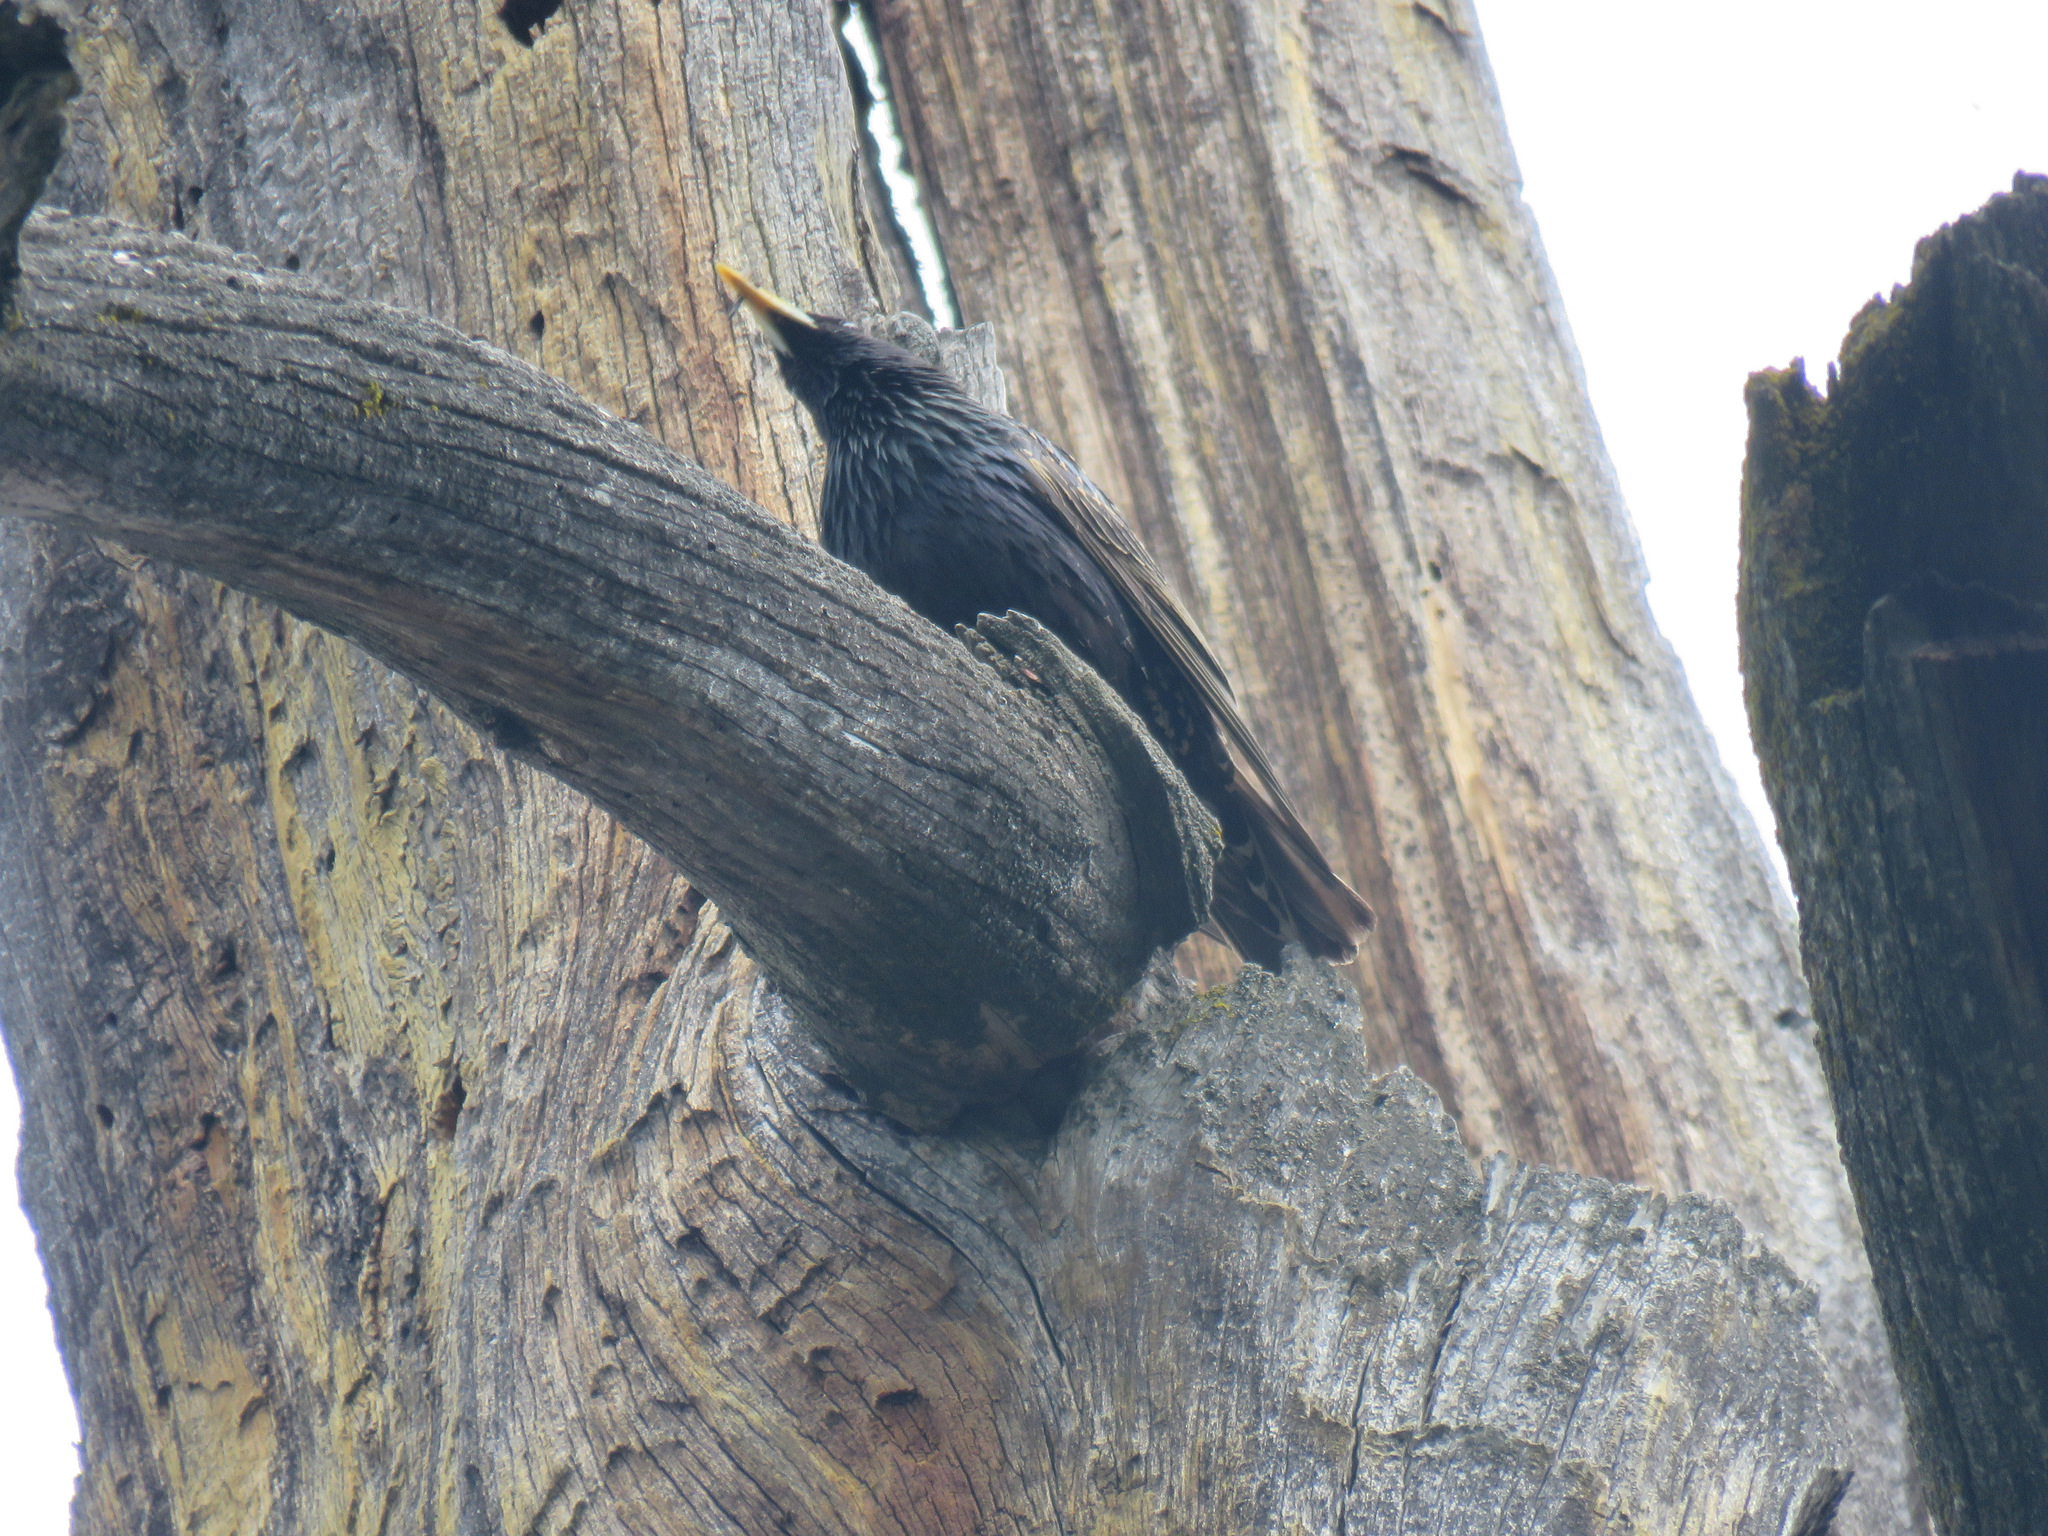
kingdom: Animalia
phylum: Chordata
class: Aves
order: Passeriformes
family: Sturnidae
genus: Sturnus
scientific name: Sturnus vulgaris
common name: Common starling
